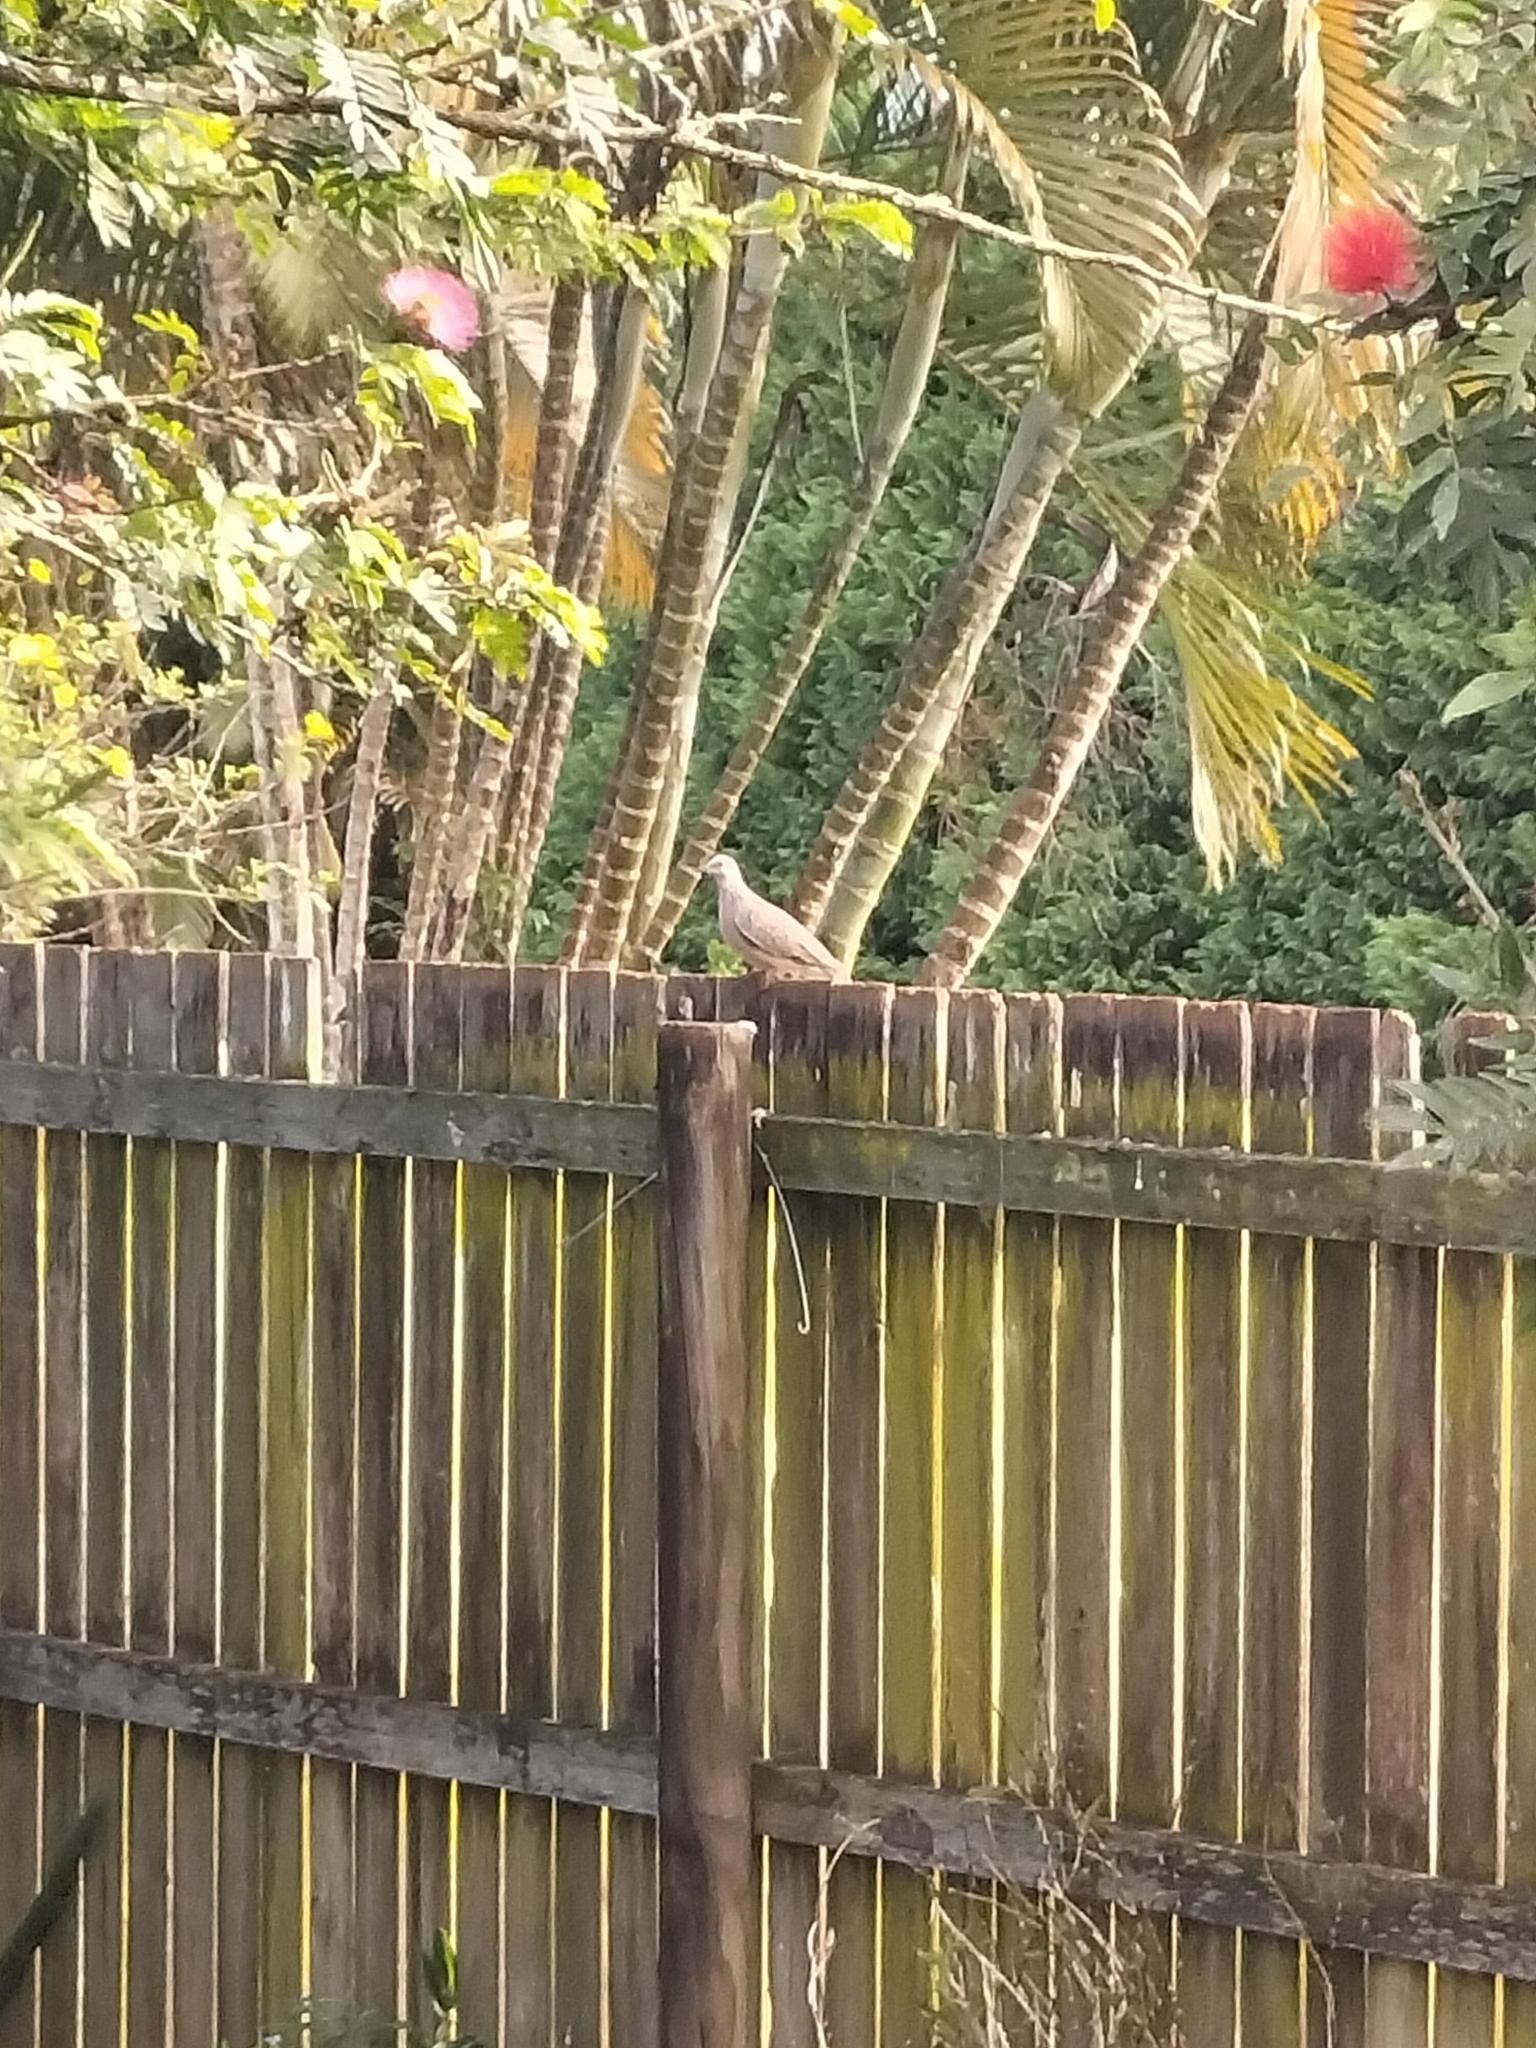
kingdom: Animalia
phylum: Chordata
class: Aves
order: Columbiformes
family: Columbidae
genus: Spilopelia
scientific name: Spilopelia chinensis
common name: Spotted dove
